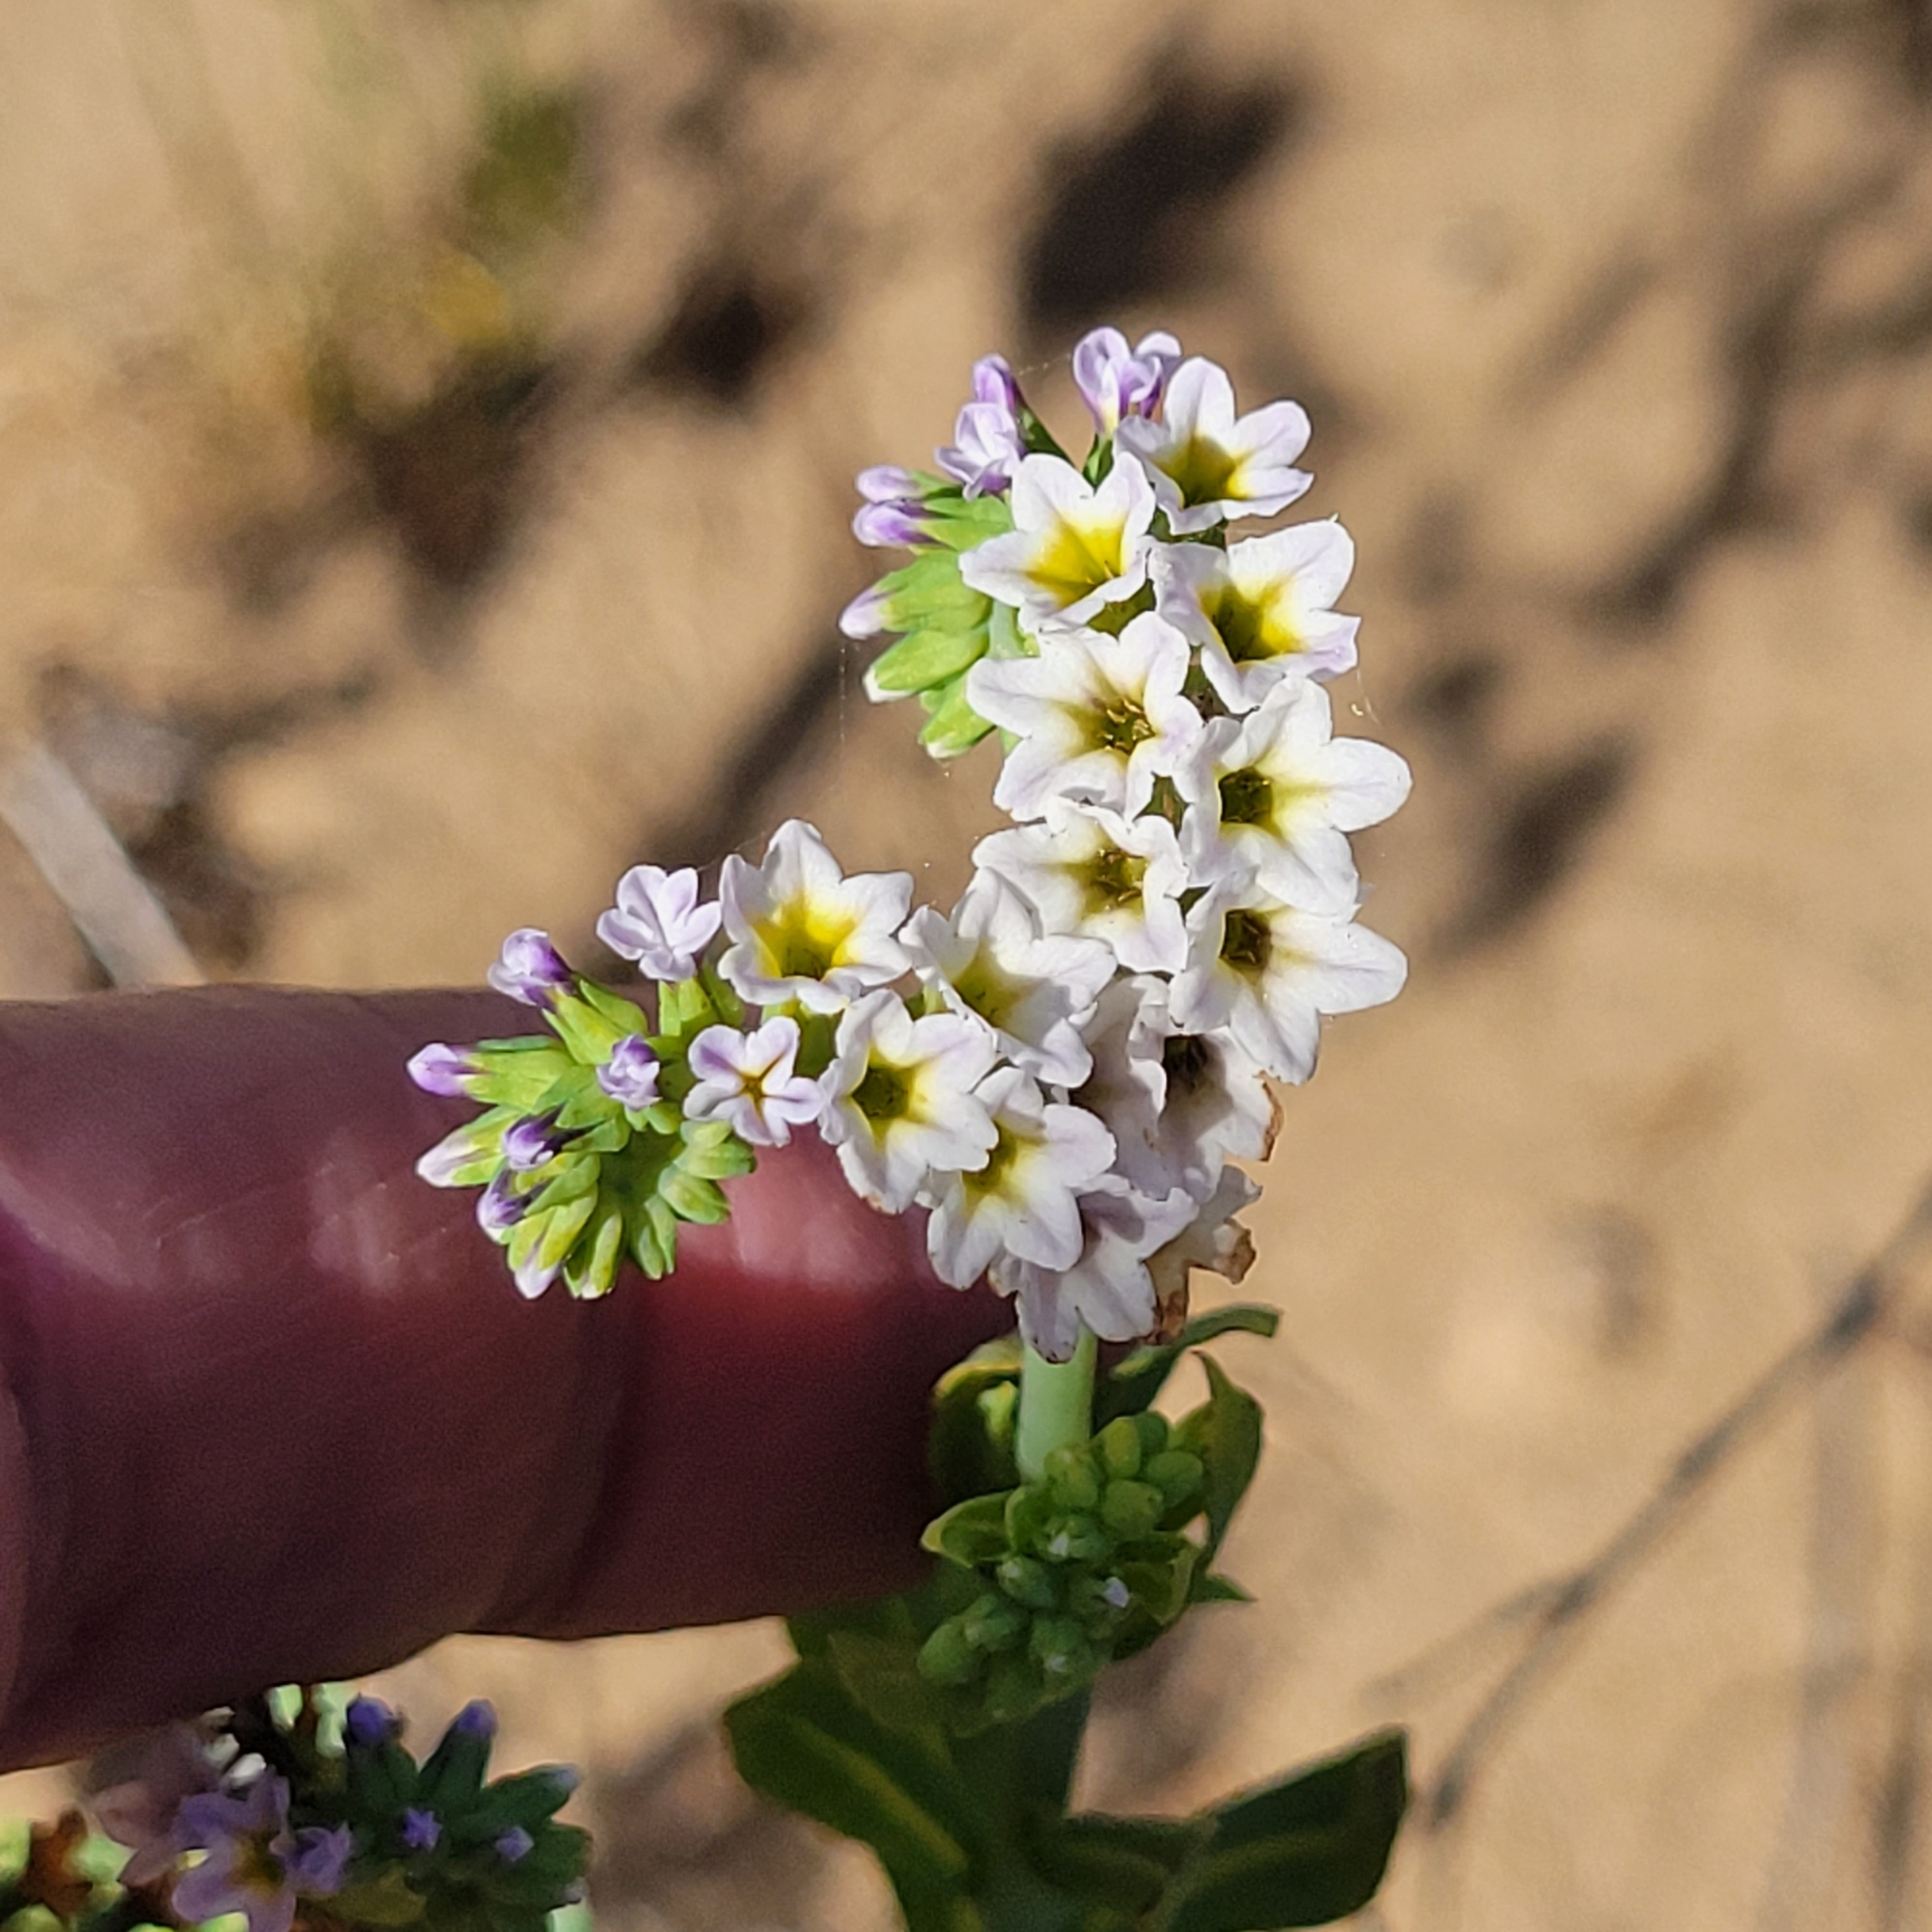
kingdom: Plantae
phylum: Tracheophyta
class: Magnoliopsida
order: Boraginales
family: Heliotropiaceae
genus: Heliotropium
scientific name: Heliotropium curassavicum
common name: Seaside heliotrope
